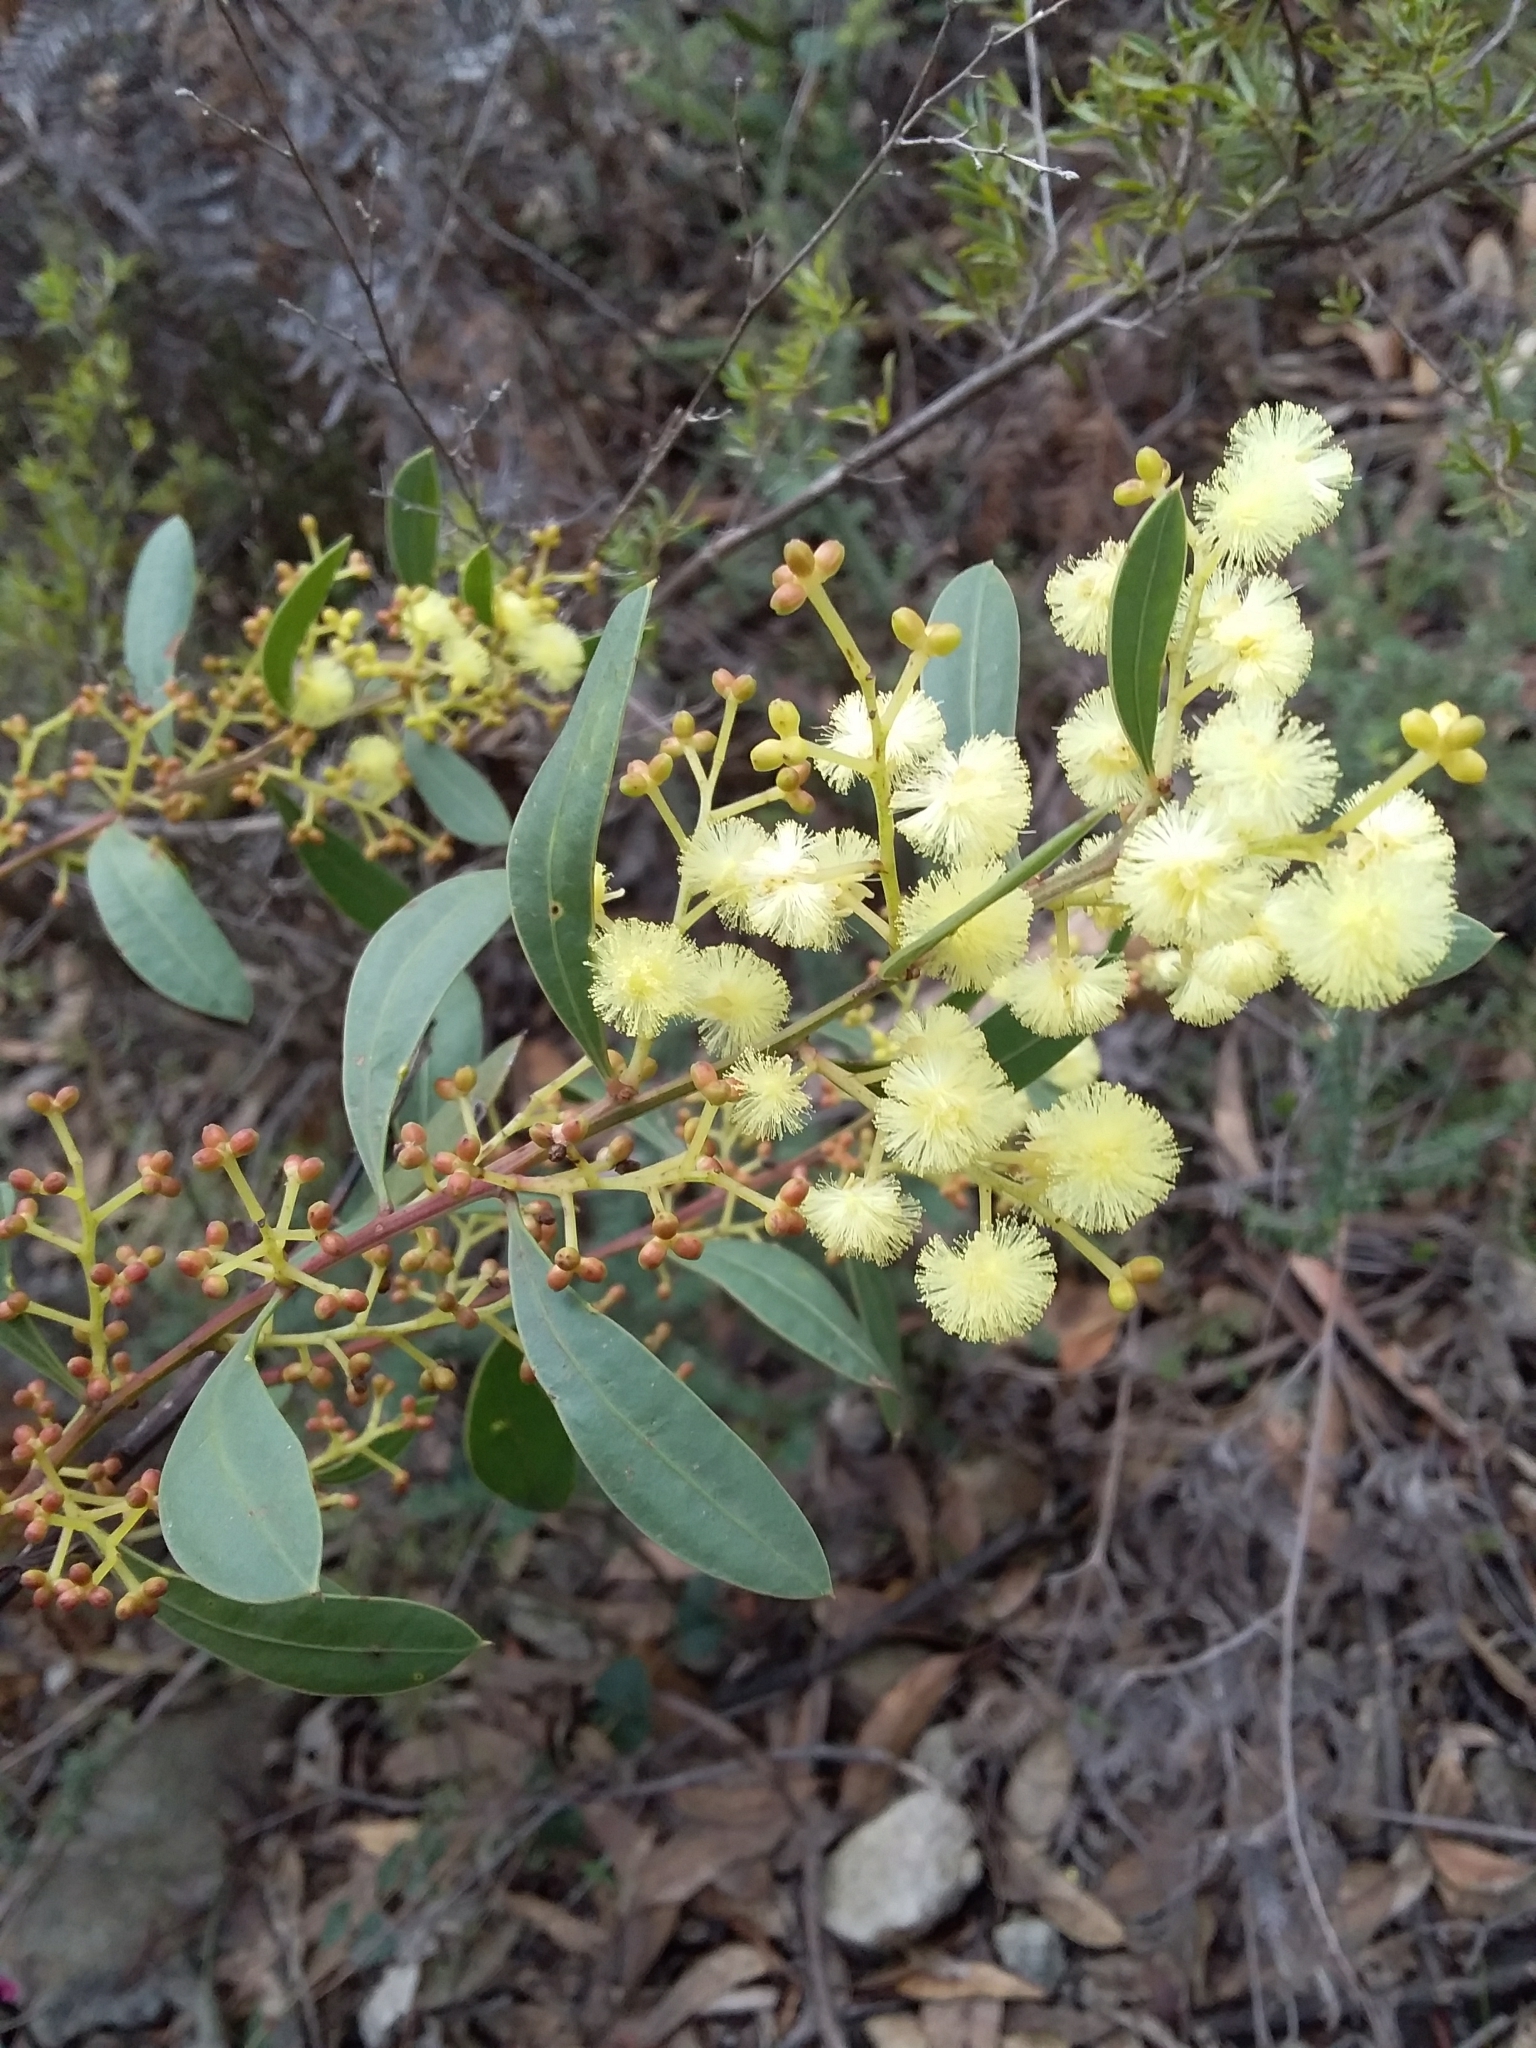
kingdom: Plantae
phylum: Tracheophyta
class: Magnoliopsida
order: Fabales
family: Fabaceae
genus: Acacia
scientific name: Acacia myrtifolia
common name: Myrtle wattle
